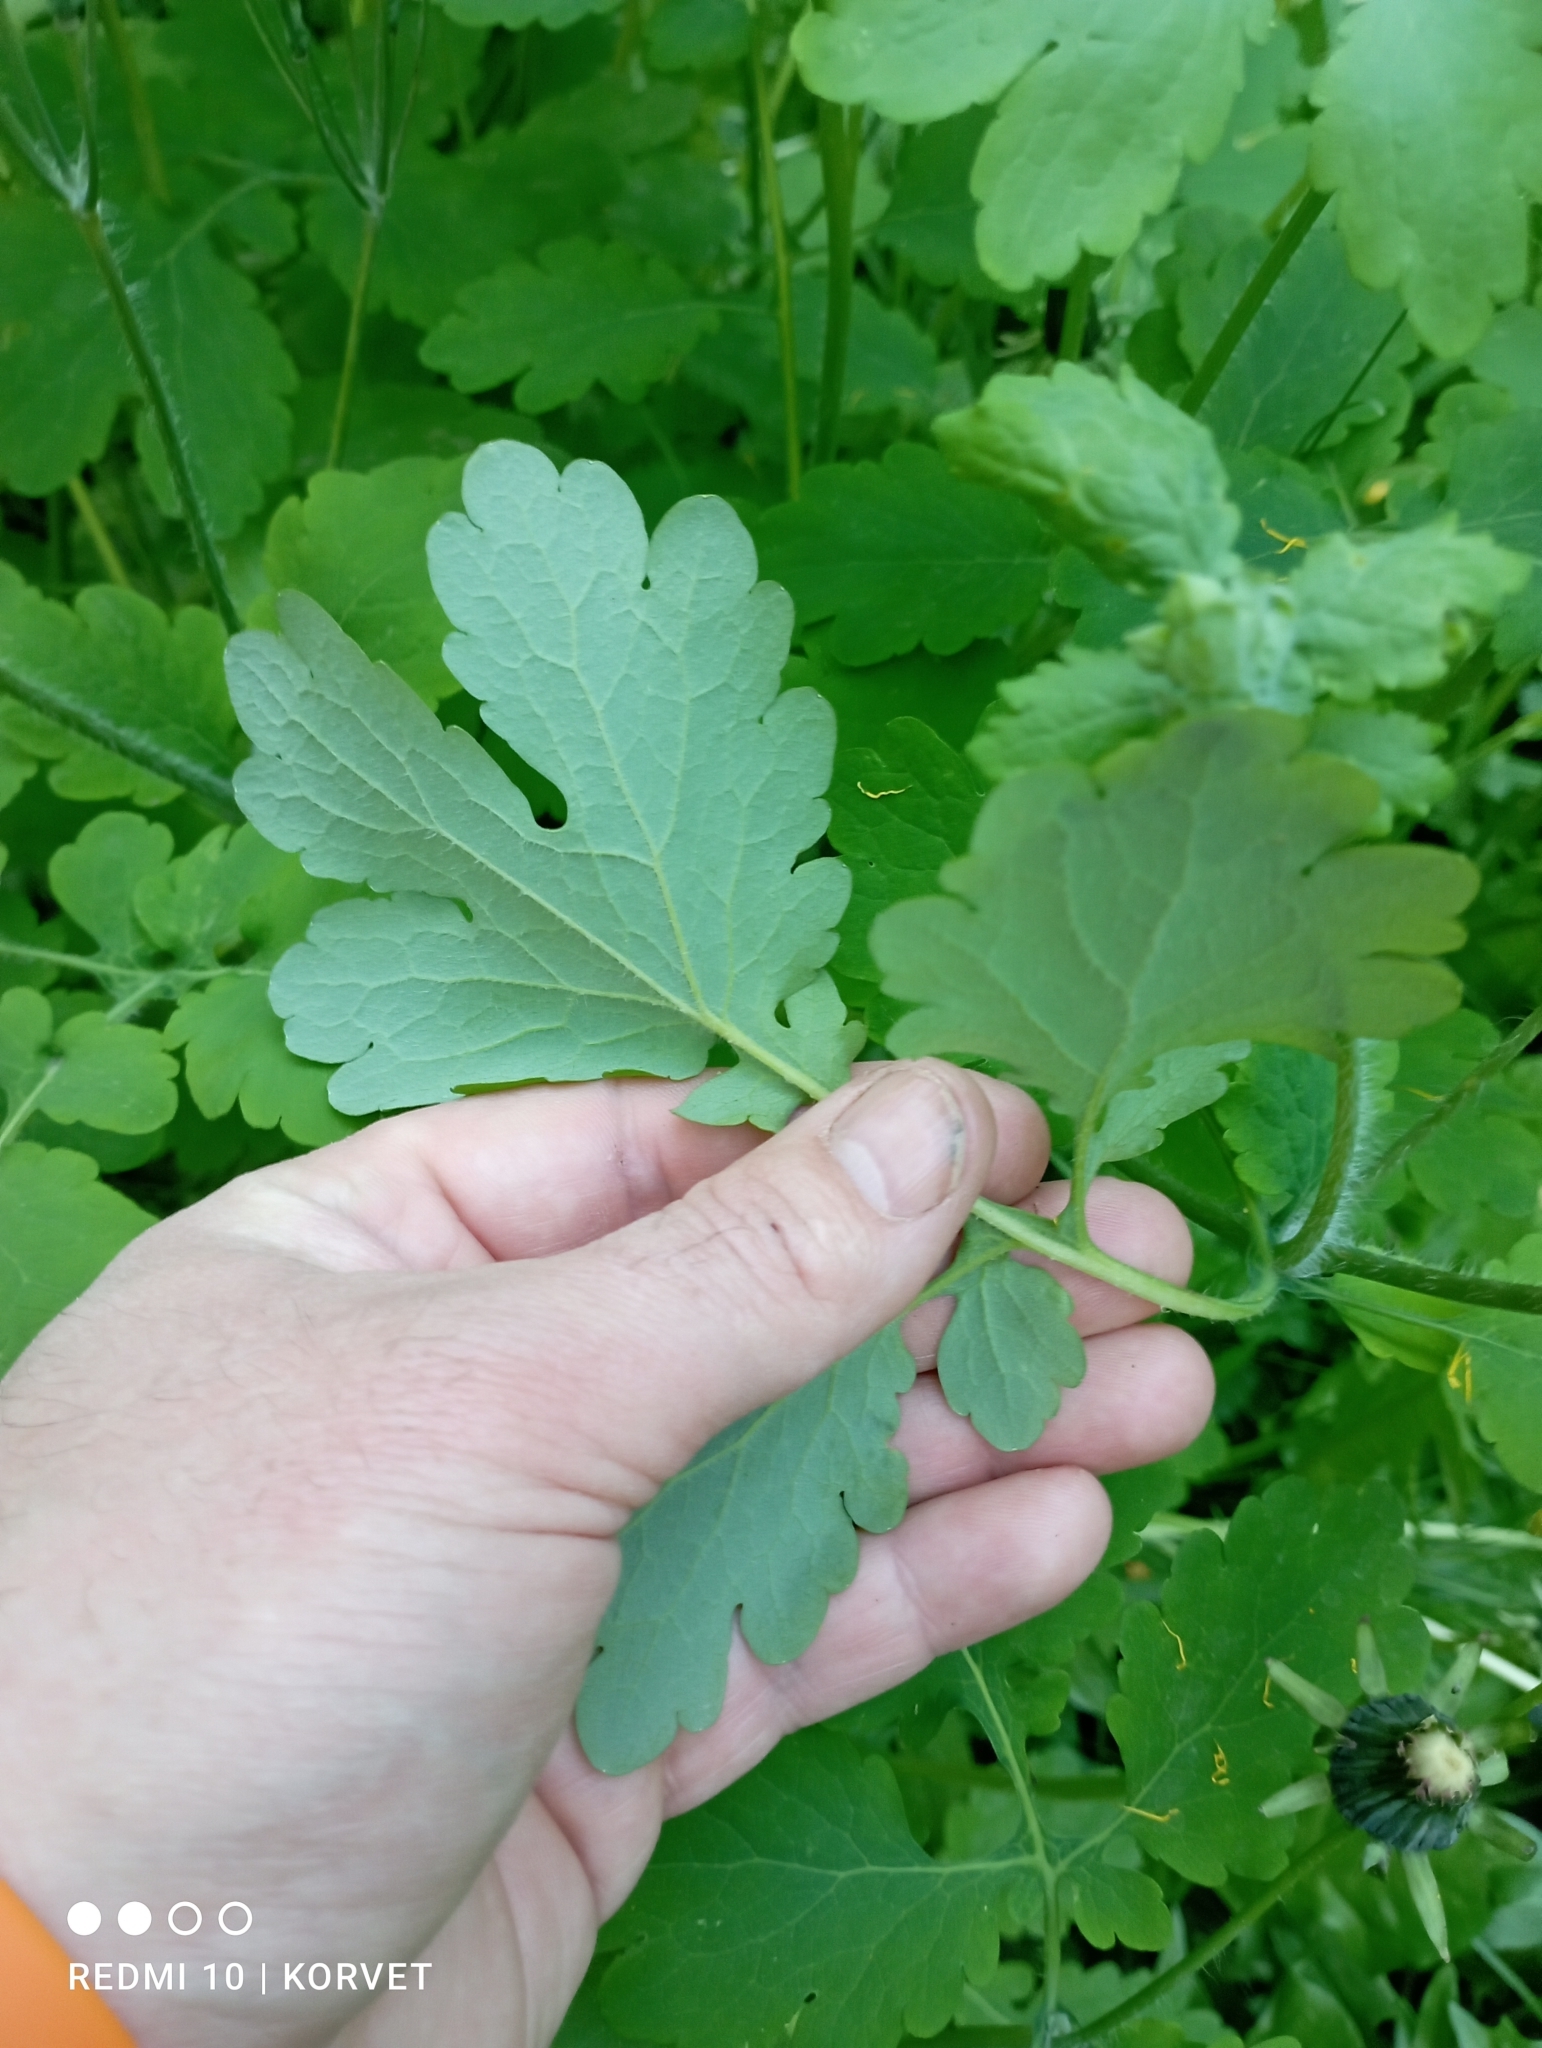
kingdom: Plantae
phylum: Tracheophyta
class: Magnoliopsida
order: Ranunculales
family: Papaveraceae
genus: Chelidonium
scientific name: Chelidonium majus
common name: Greater celandine
